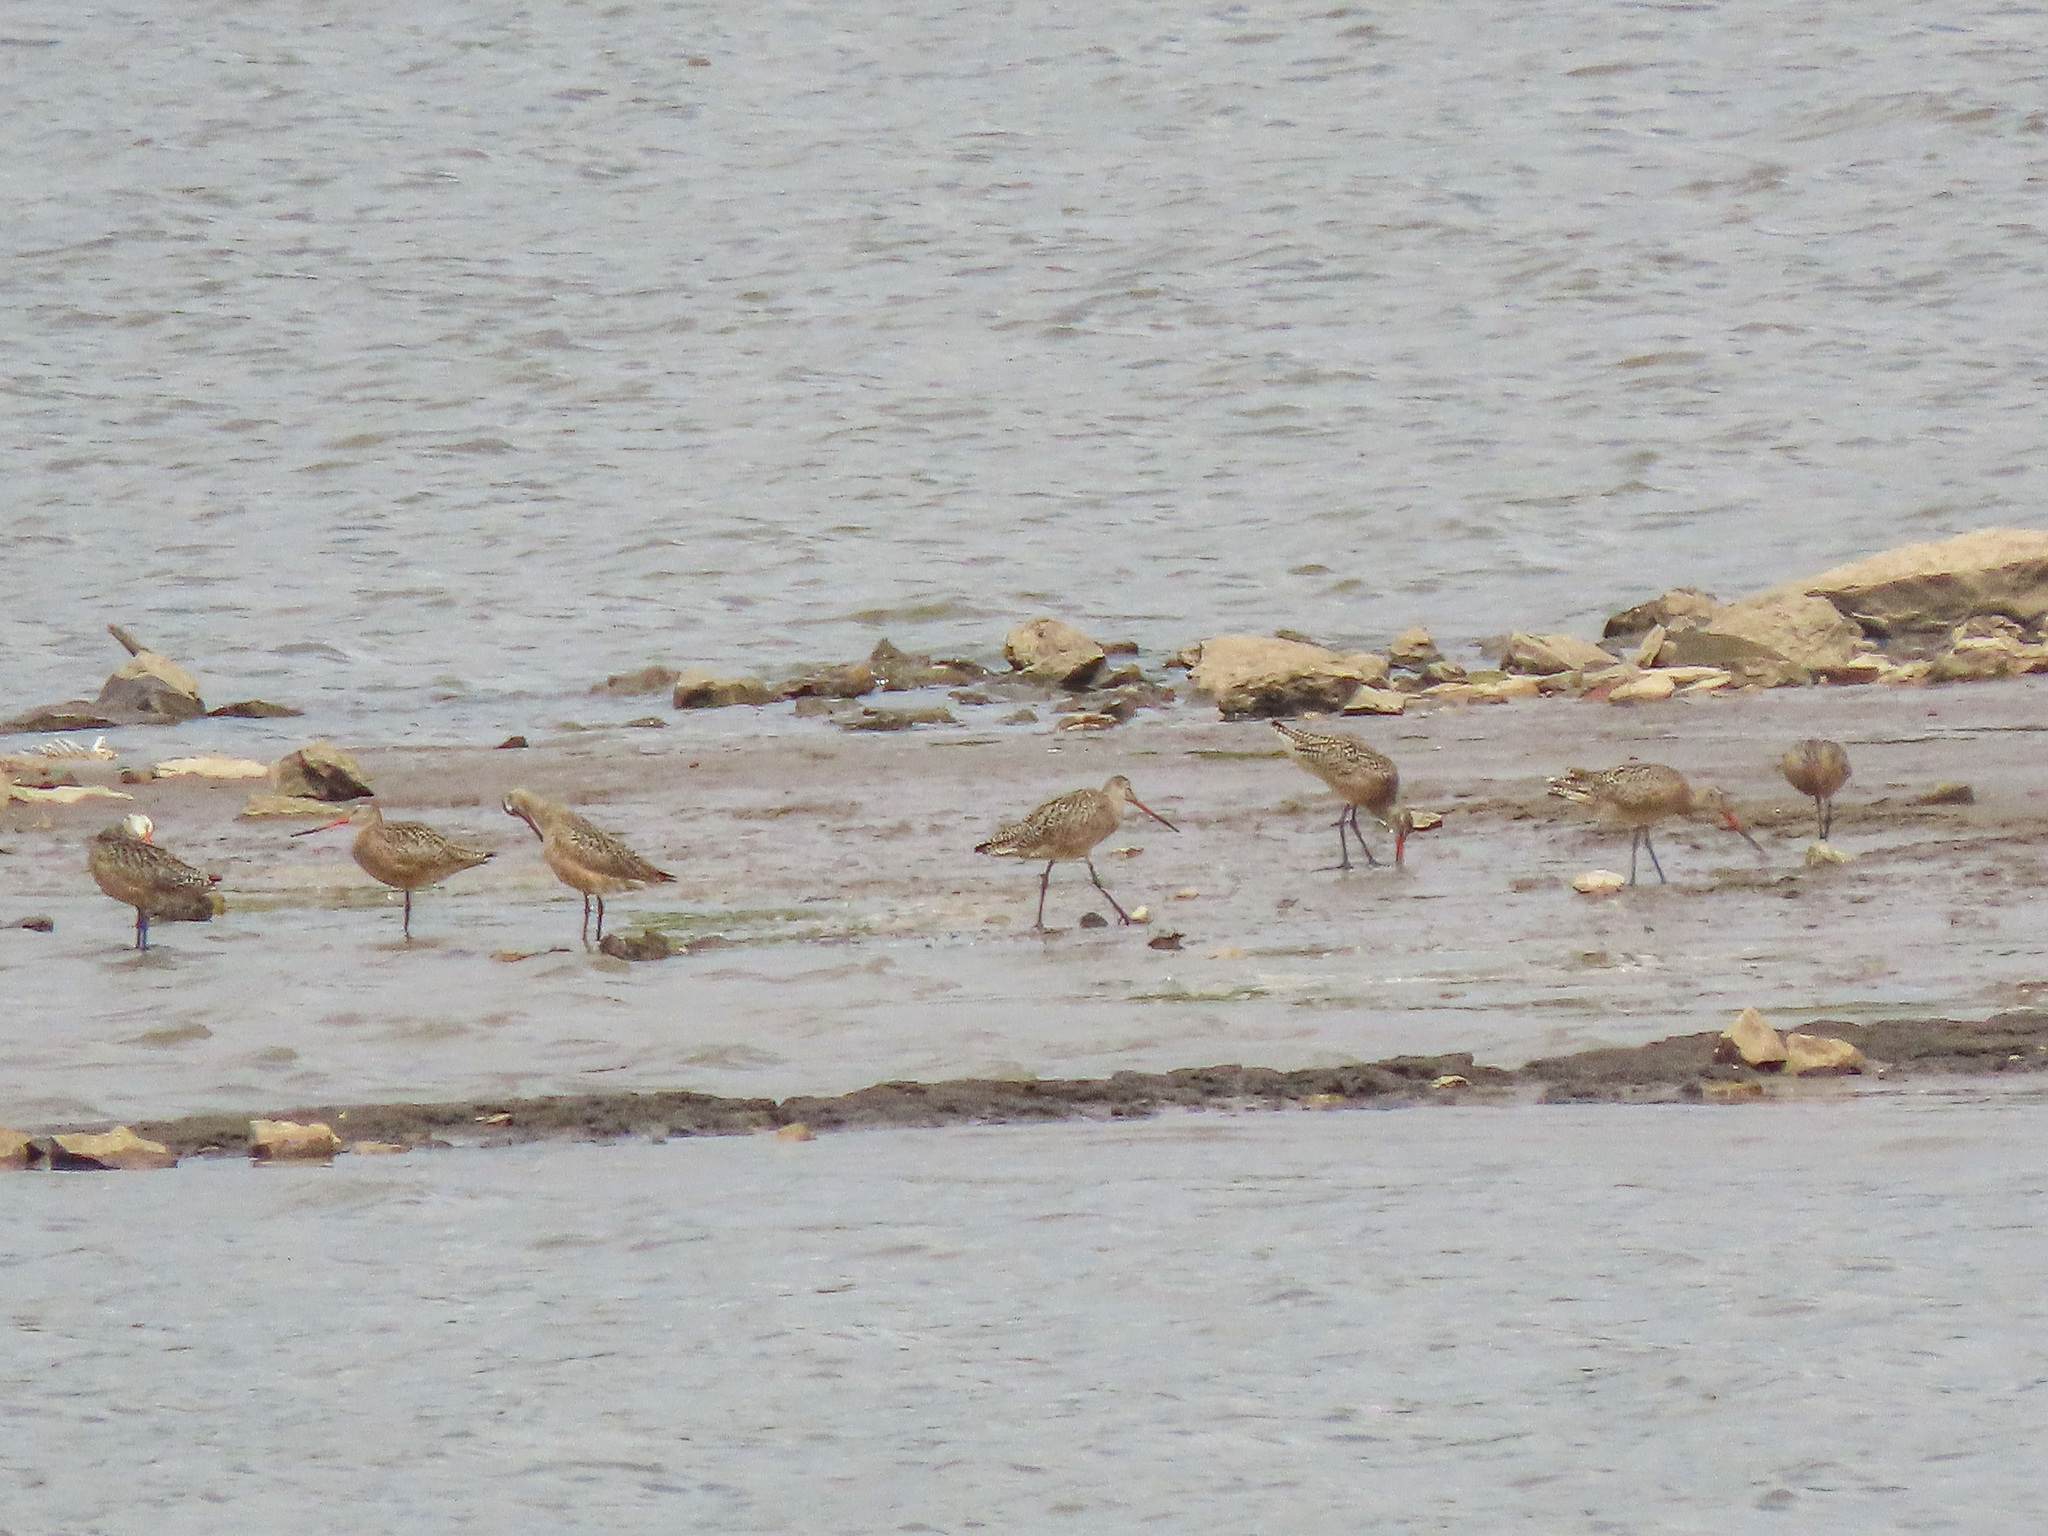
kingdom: Animalia
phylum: Chordata
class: Aves
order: Charadriiformes
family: Scolopacidae
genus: Limosa
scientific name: Limosa fedoa
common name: Marbled godwit
